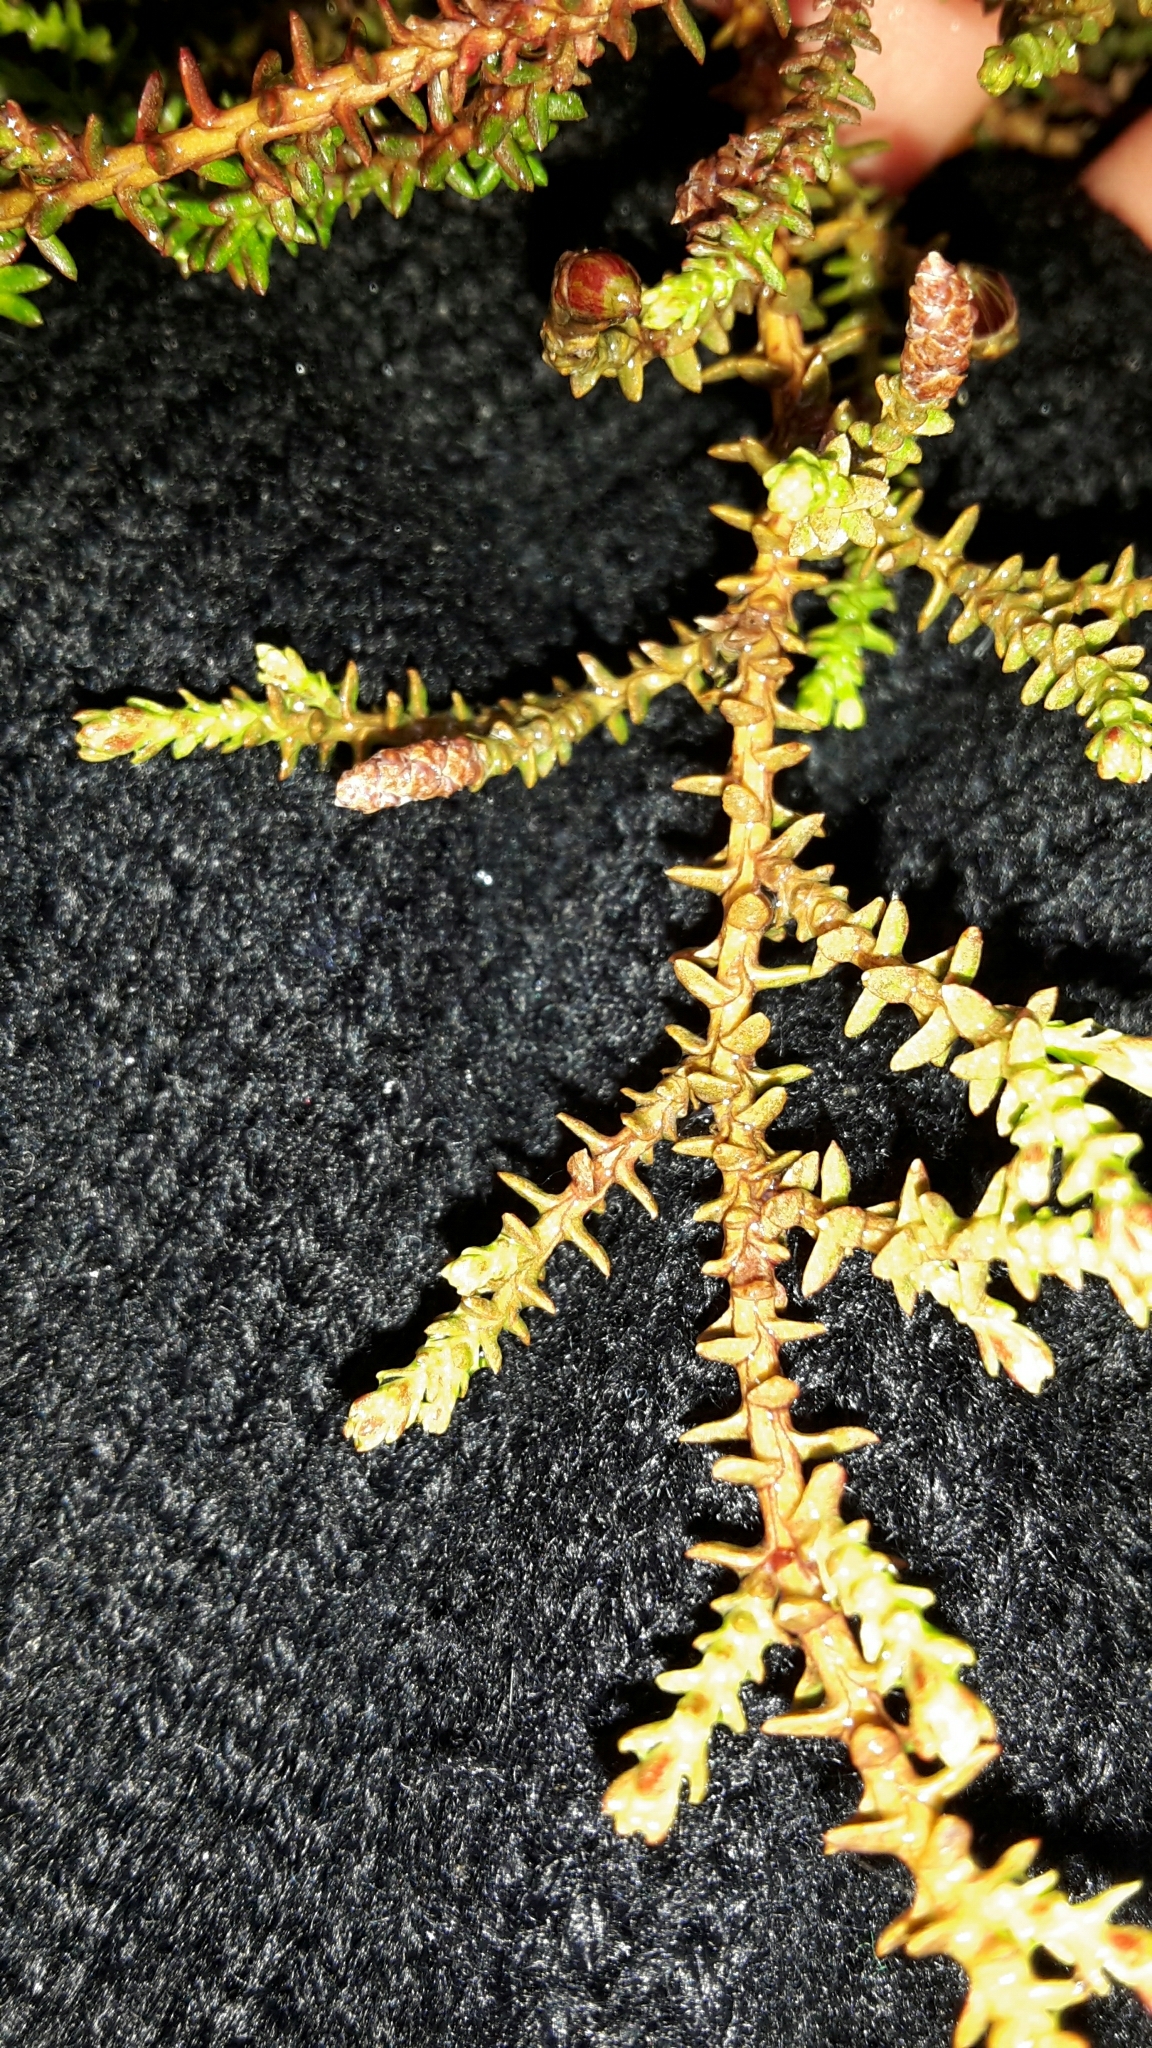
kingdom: Plantae
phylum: Tracheophyta
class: Pinopsida
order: Pinales
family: Podocarpaceae
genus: Lepidothamnus
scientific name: Lepidothamnus laxifolius
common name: Pygmy pine
